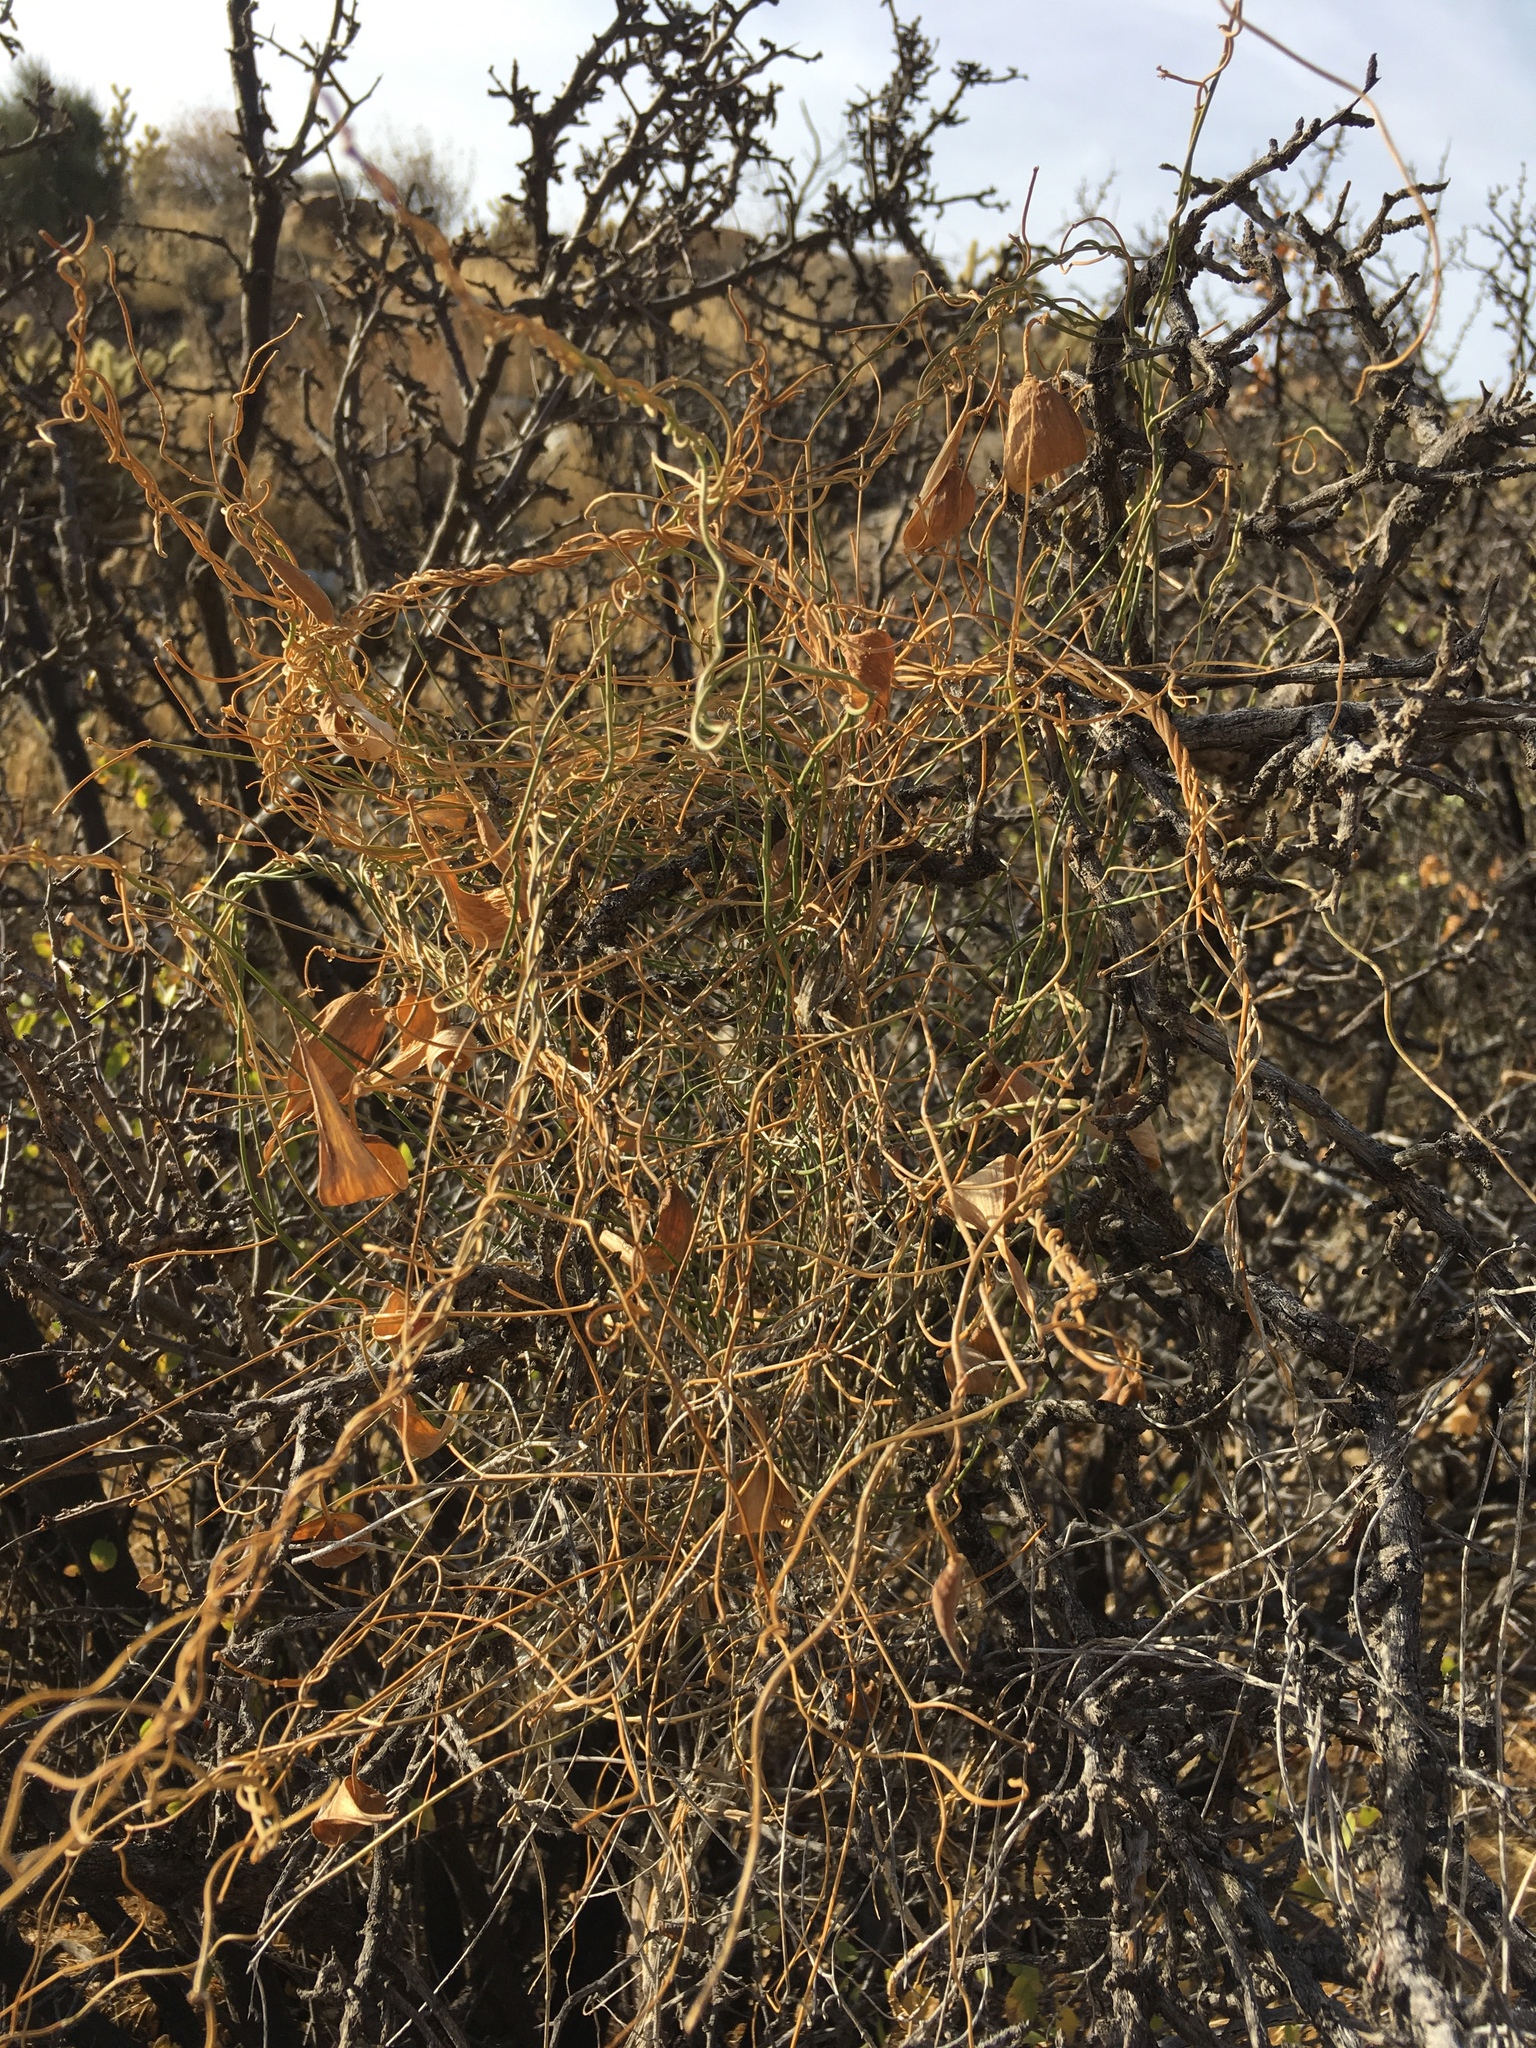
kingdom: Plantae
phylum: Tracheophyta
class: Magnoliopsida
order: Gentianales
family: Apocynaceae
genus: Funastrum
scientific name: Funastrum heterophyllum
